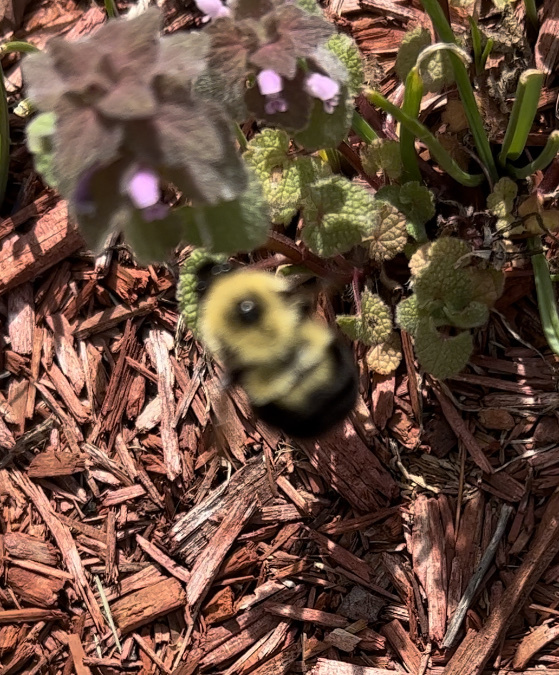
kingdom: Animalia
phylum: Arthropoda
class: Insecta
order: Hymenoptera
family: Apidae
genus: Bombus
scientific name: Bombus bimaculatus
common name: Two-spotted bumble bee
